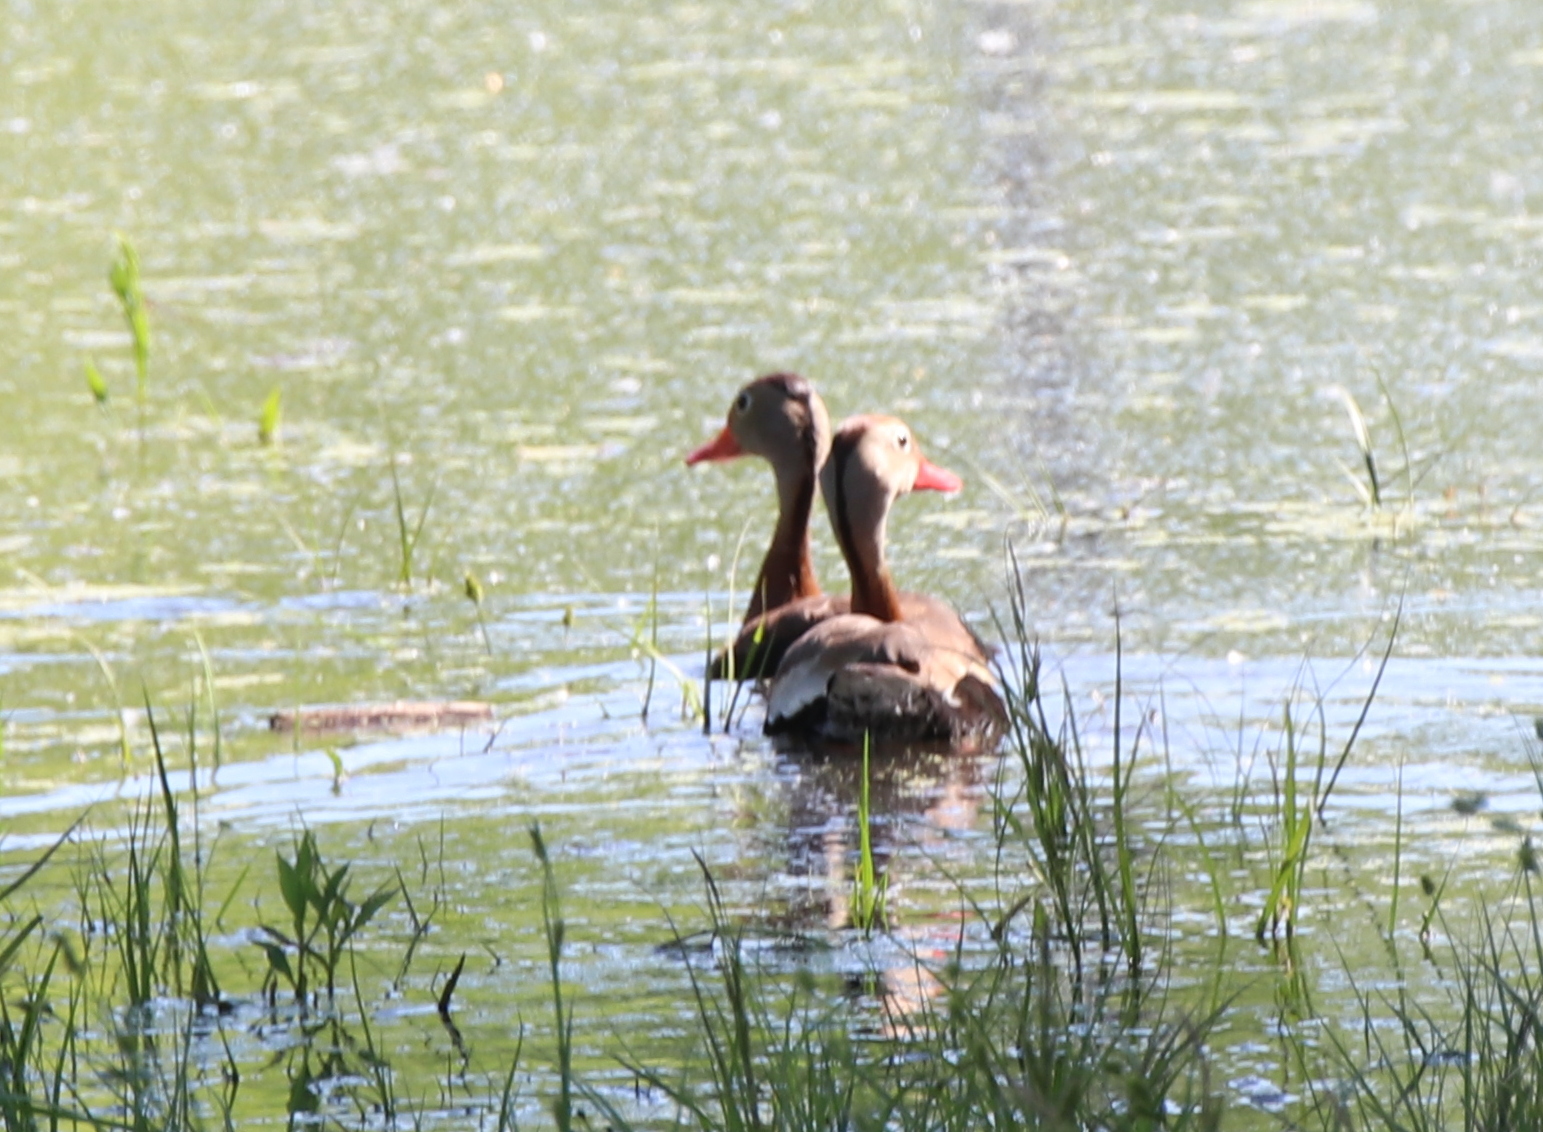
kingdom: Animalia
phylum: Chordata
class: Aves
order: Anseriformes
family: Anatidae
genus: Dendrocygna
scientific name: Dendrocygna autumnalis
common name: Black-bellied whistling duck
